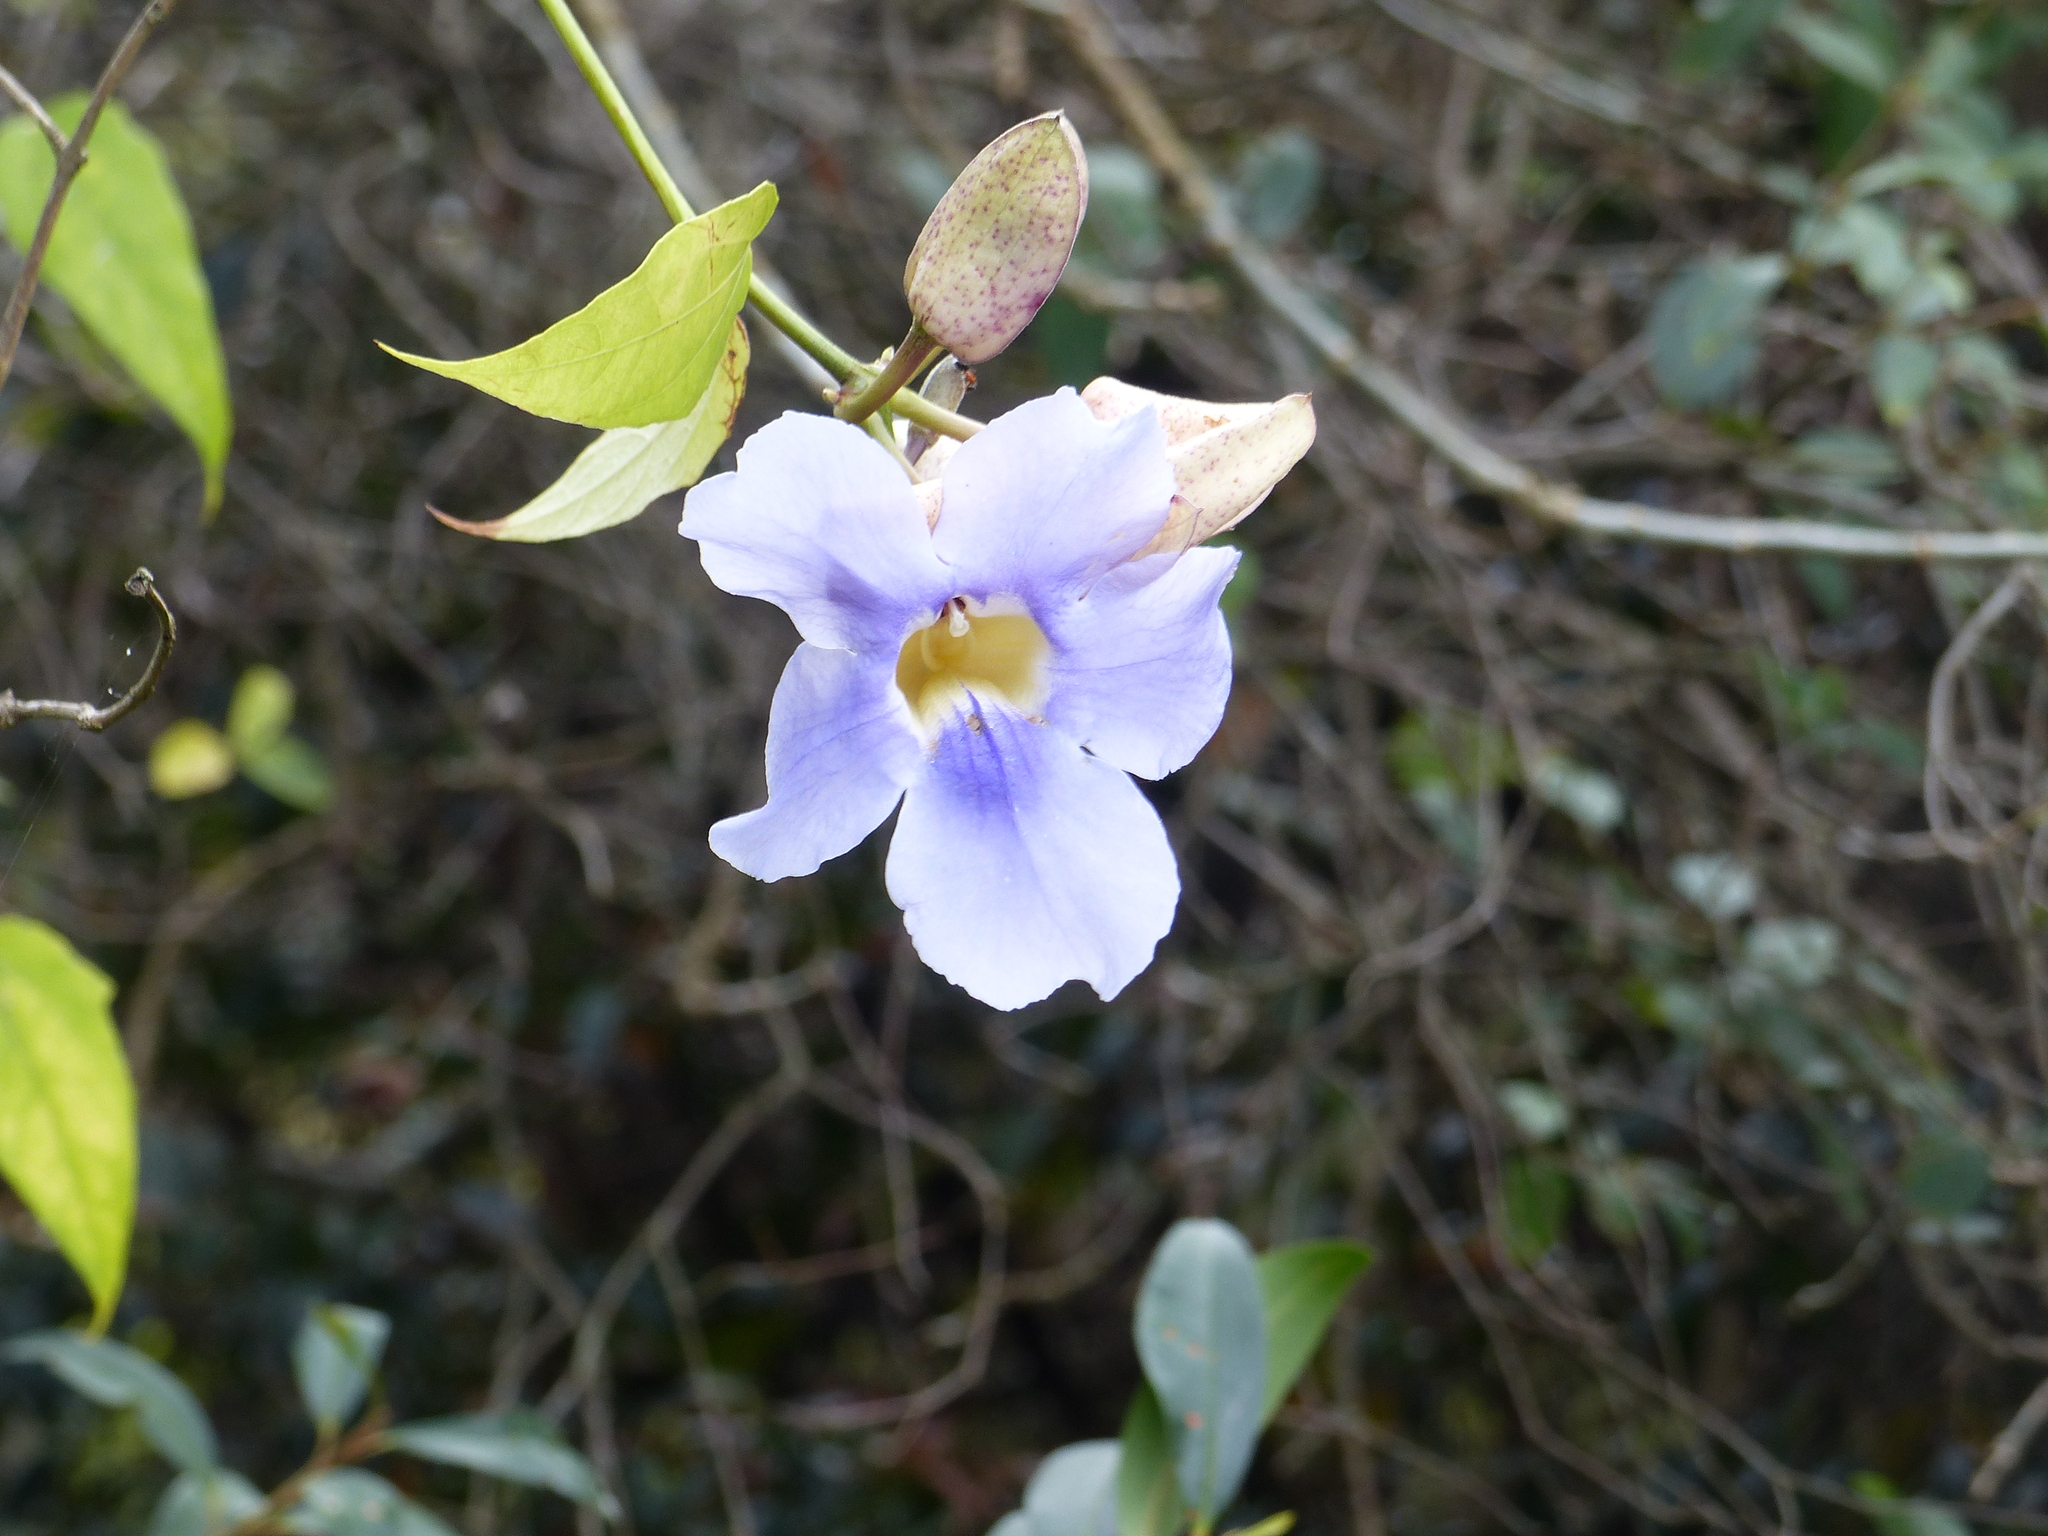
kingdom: Plantae
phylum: Tracheophyta
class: Magnoliopsida
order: Lamiales
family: Acanthaceae
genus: Thunbergia
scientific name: Thunbergia laurifolia
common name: Laurel-leaved thunbergia
